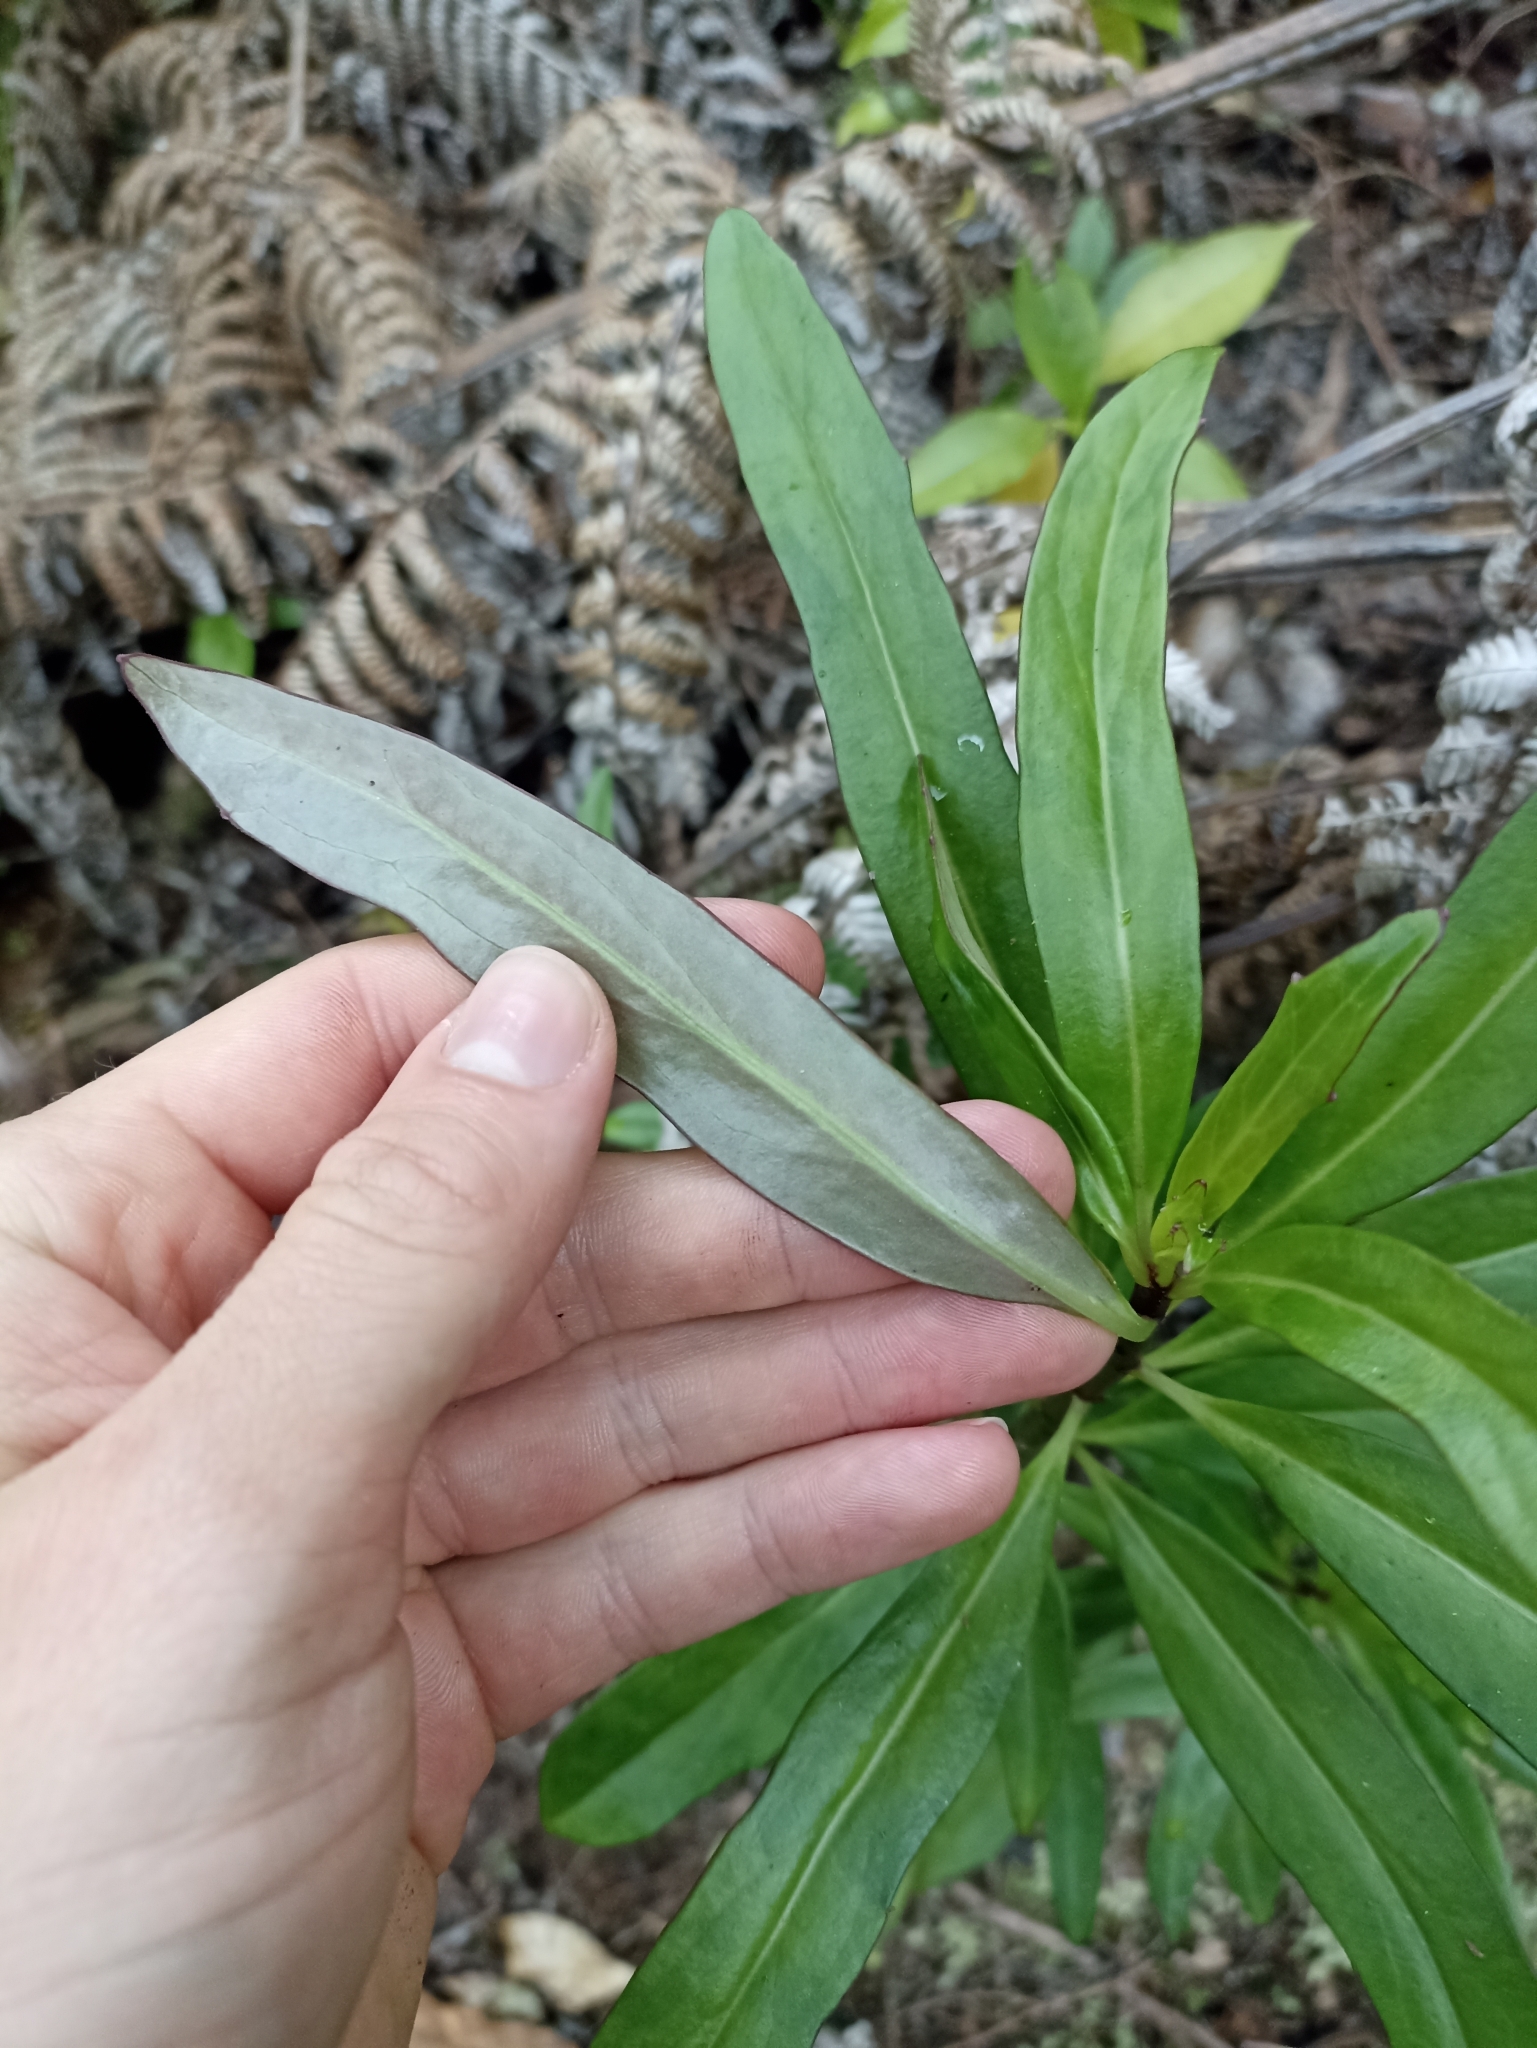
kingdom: Plantae
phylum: Tracheophyta
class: Magnoliopsida
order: Asterales
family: Asteraceae
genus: Brachyglottis
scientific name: Brachyglottis kirkii
